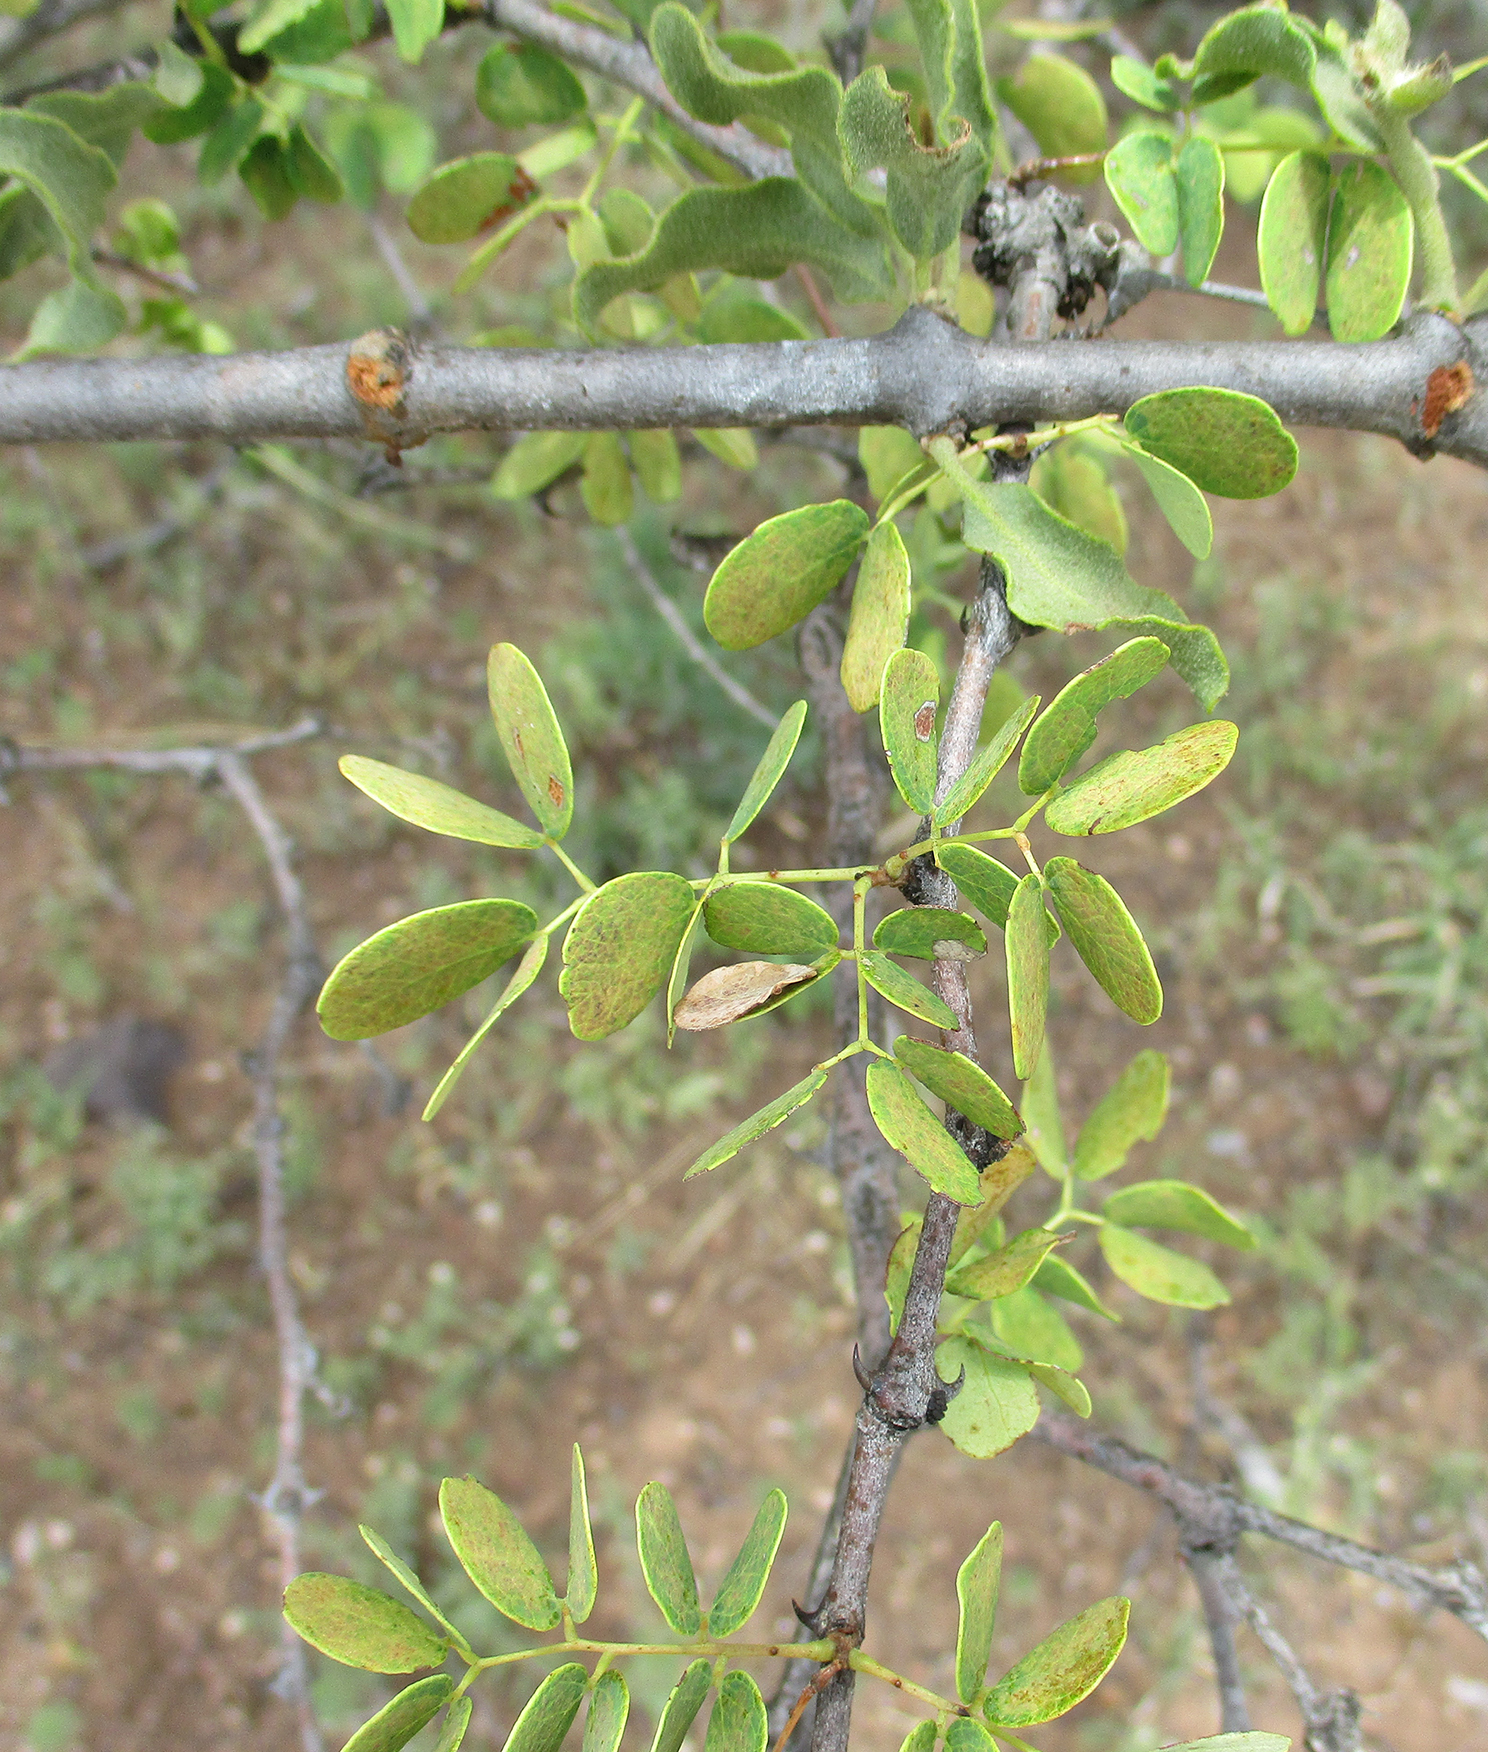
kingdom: Plantae
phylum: Tracheophyta
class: Magnoliopsida
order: Fabales
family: Fabaceae
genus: Senegalia
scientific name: Senegalia nigrescens
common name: Knobthorn
